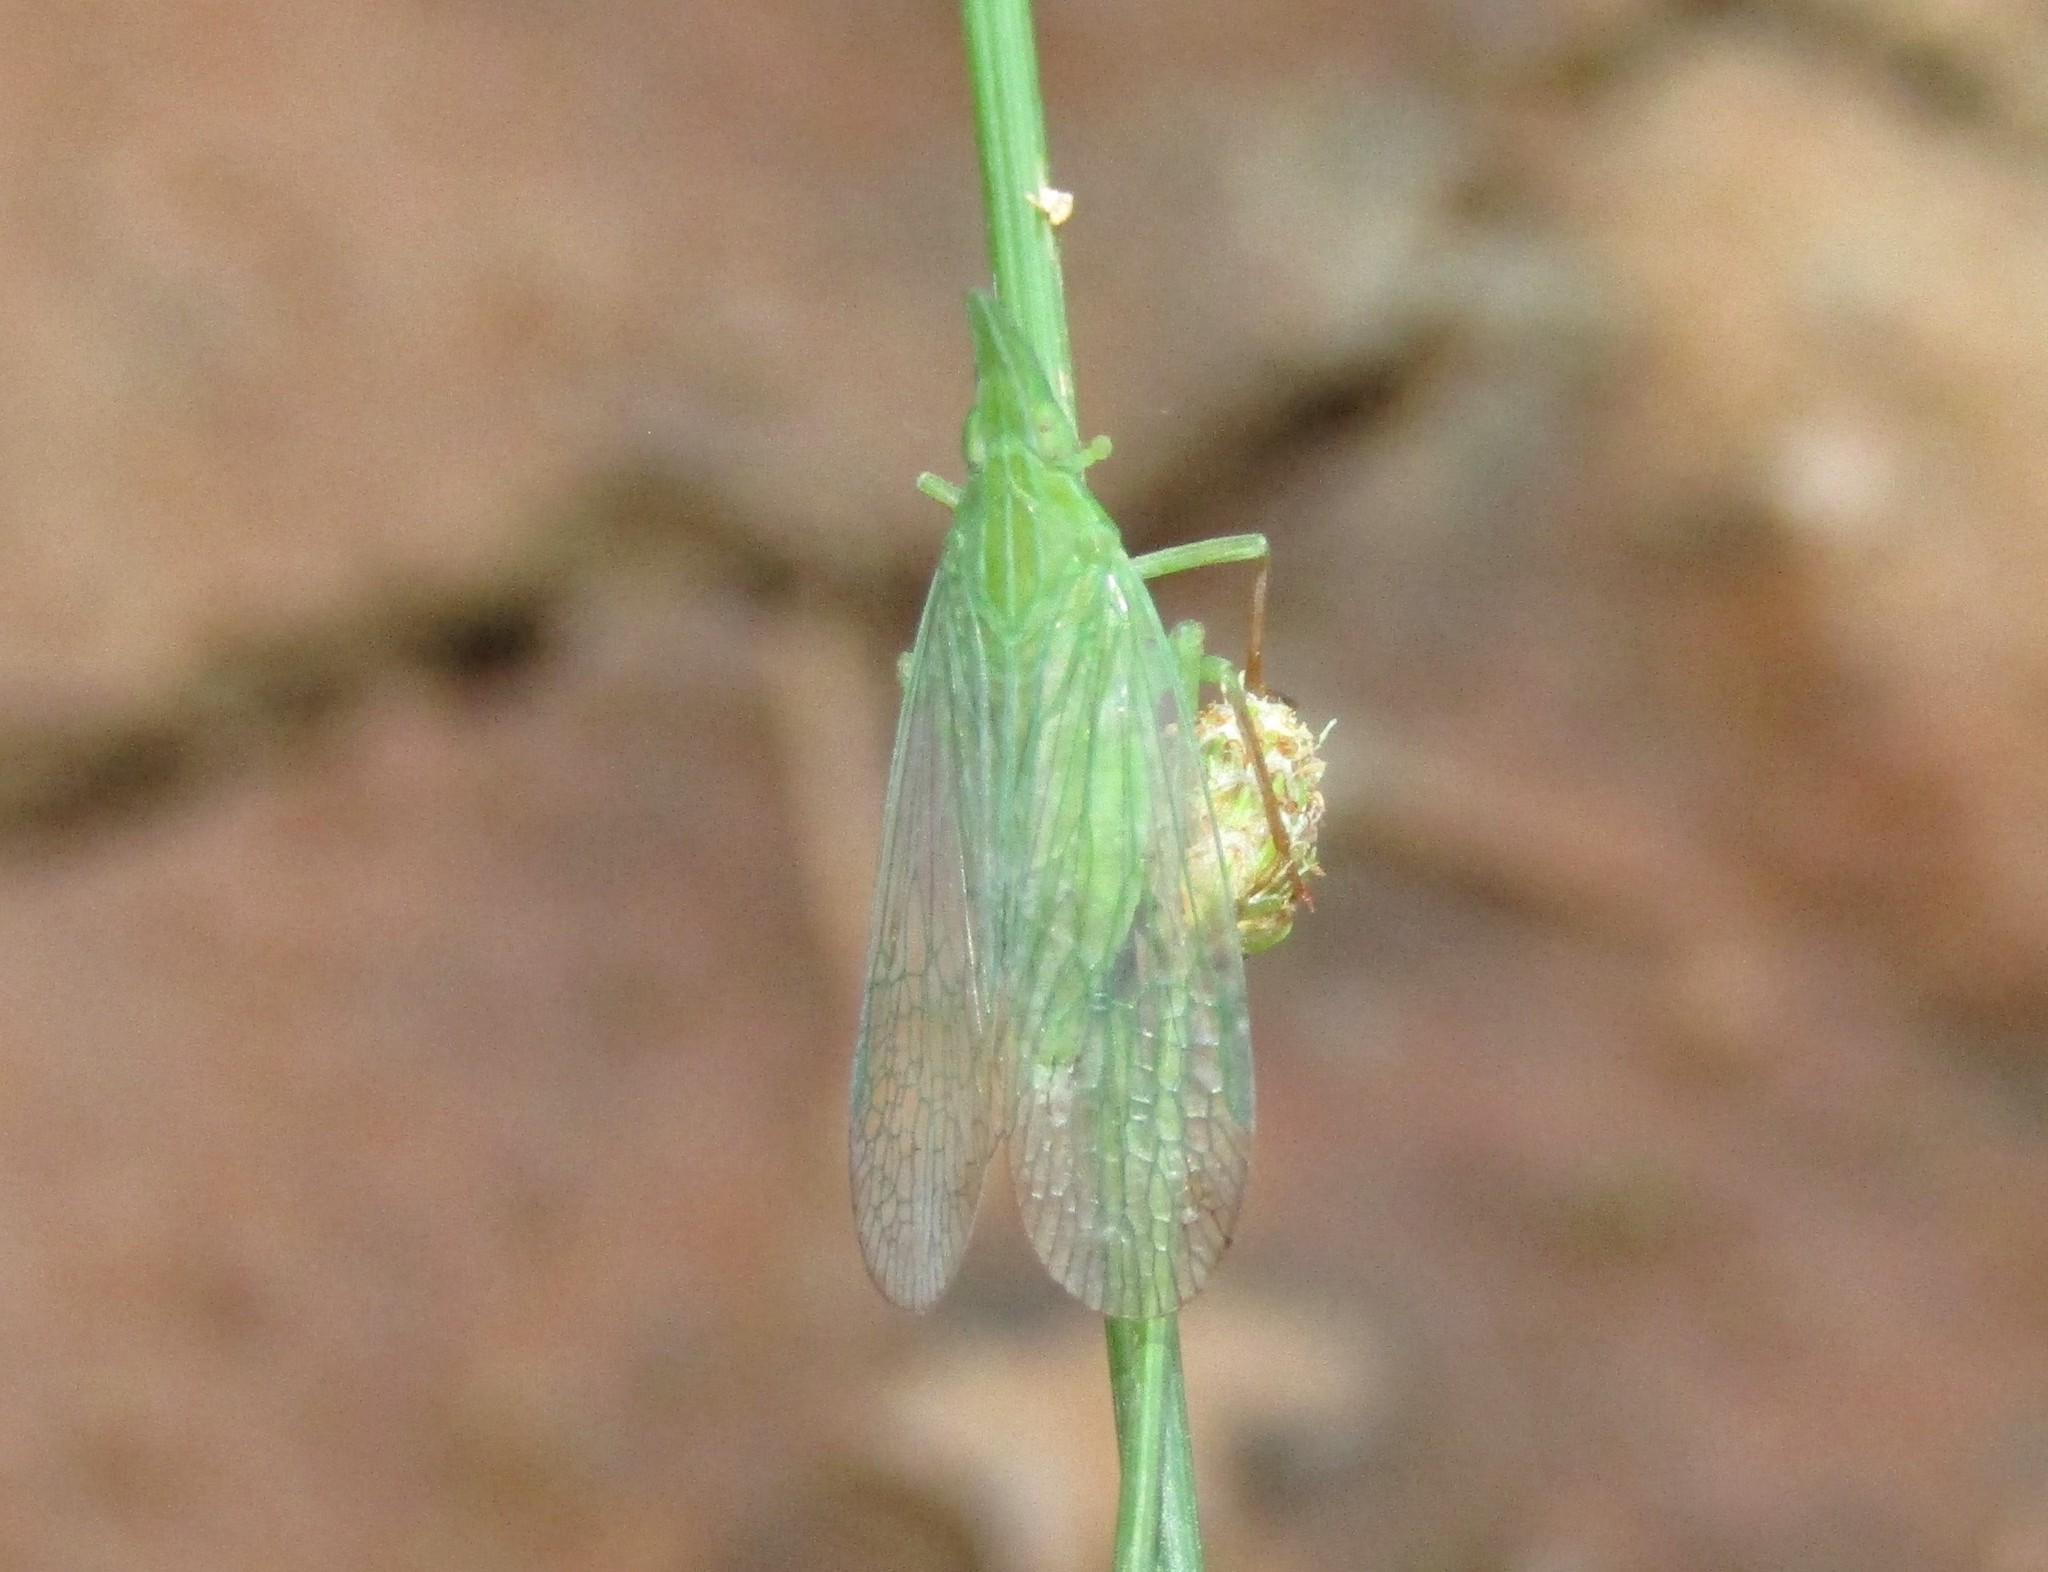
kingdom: Animalia
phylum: Arthropoda
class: Insecta
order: Hemiptera
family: Dictyopharidae
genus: Rhynchomitra
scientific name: Rhynchomitra microrhina
